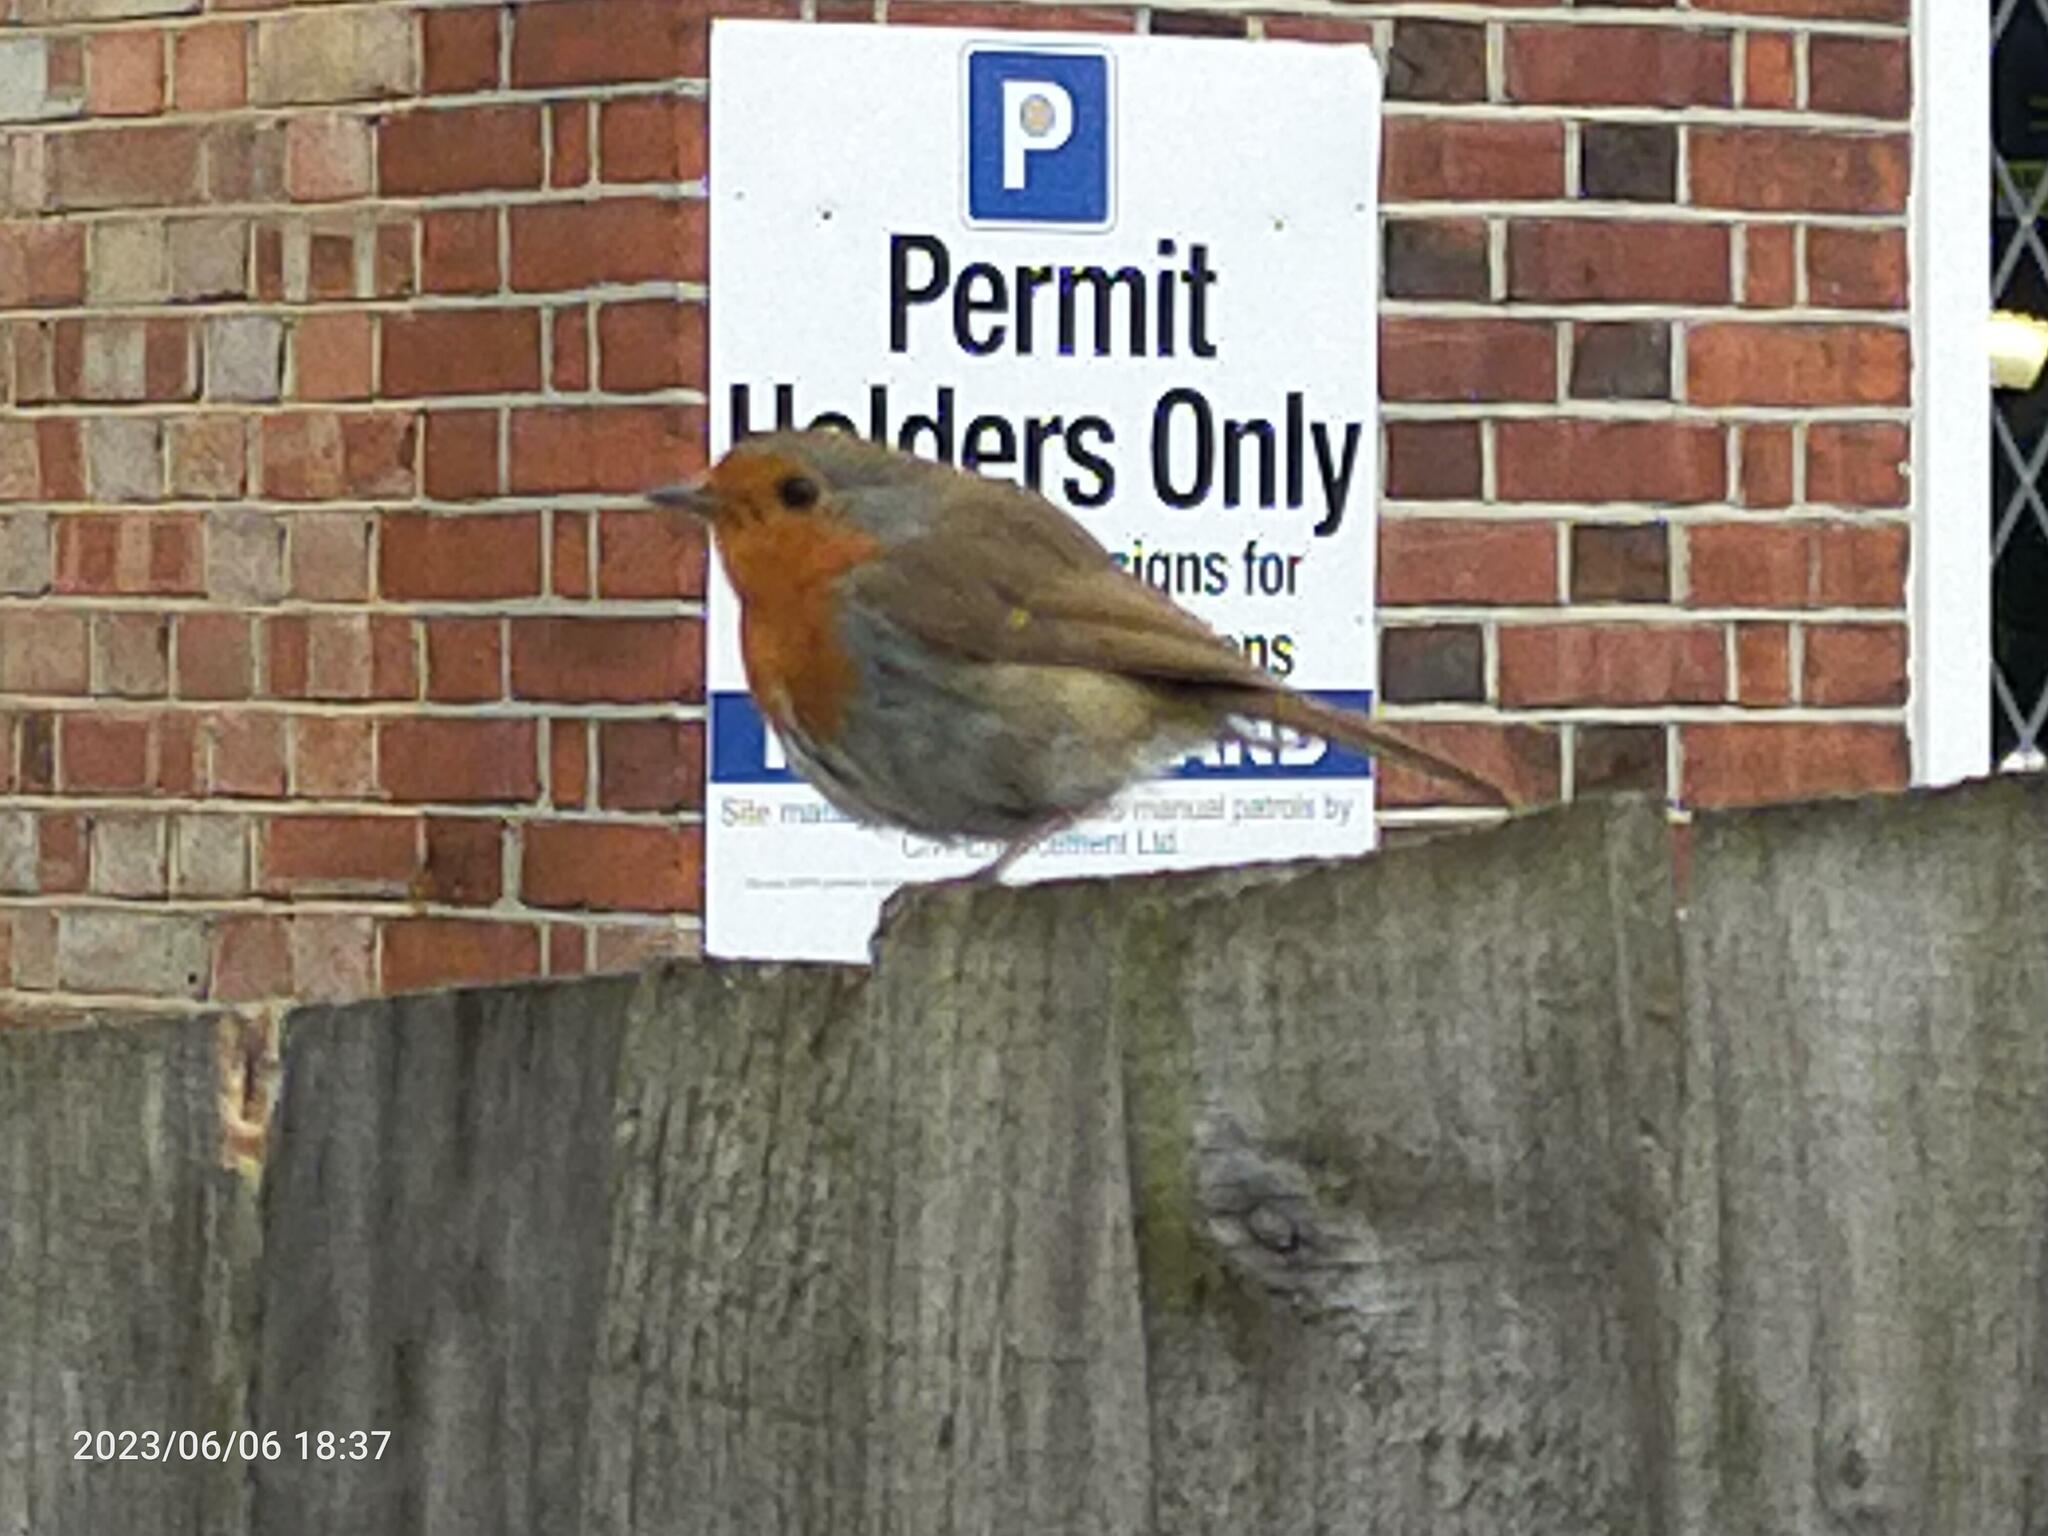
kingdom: Animalia
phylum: Chordata
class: Aves
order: Passeriformes
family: Muscicapidae
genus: Erithacus
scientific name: Erithacus rubecula
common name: European robin
